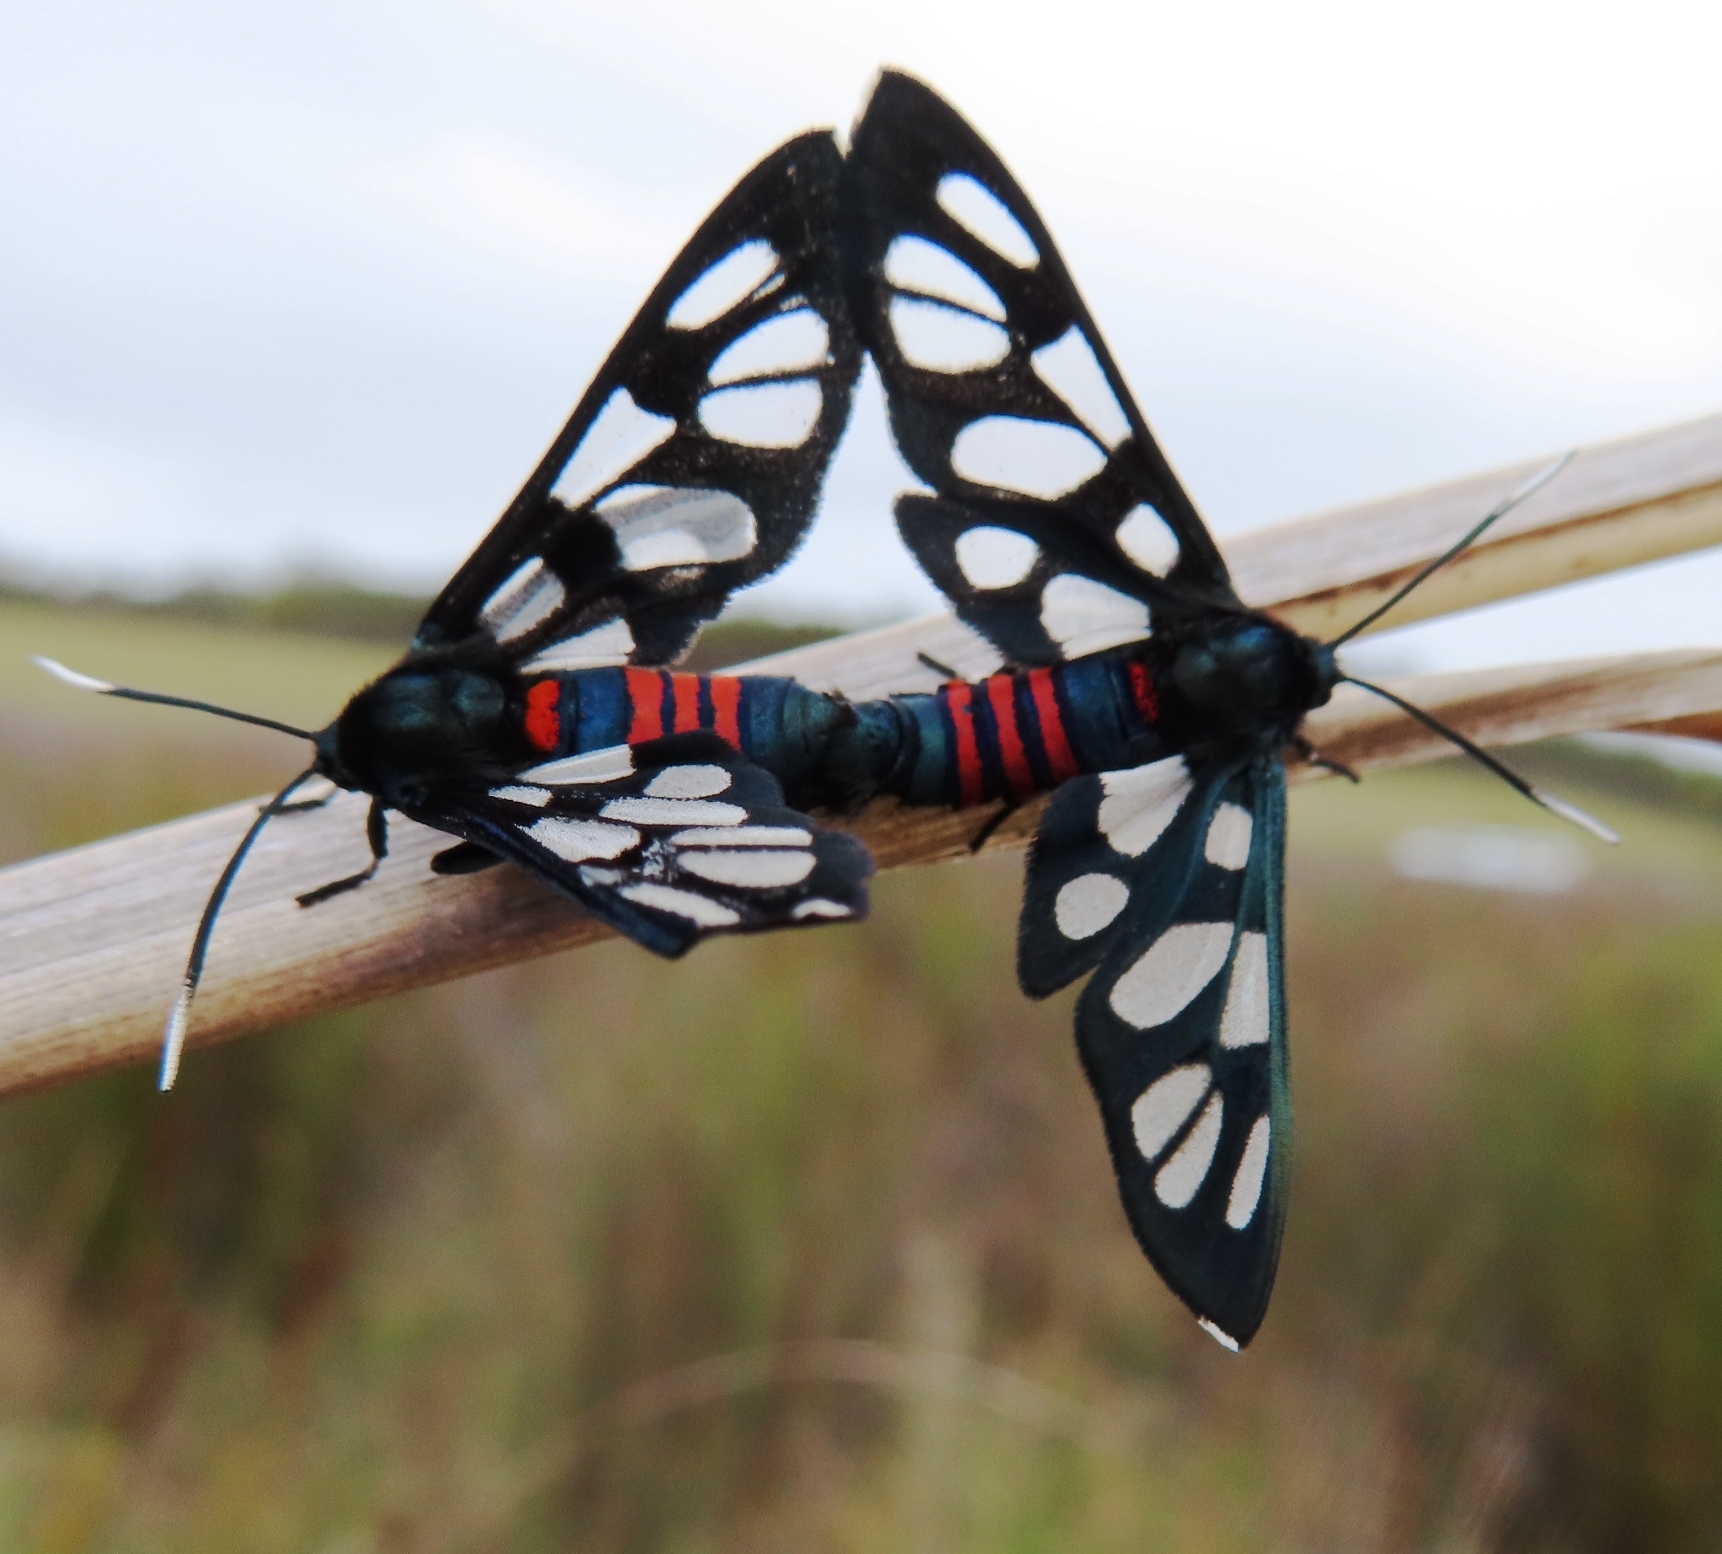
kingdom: Animalia
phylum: Arthropoda
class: Insecta
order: Lepidoptera
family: Erebidae
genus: Amata
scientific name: Amata cerbera
